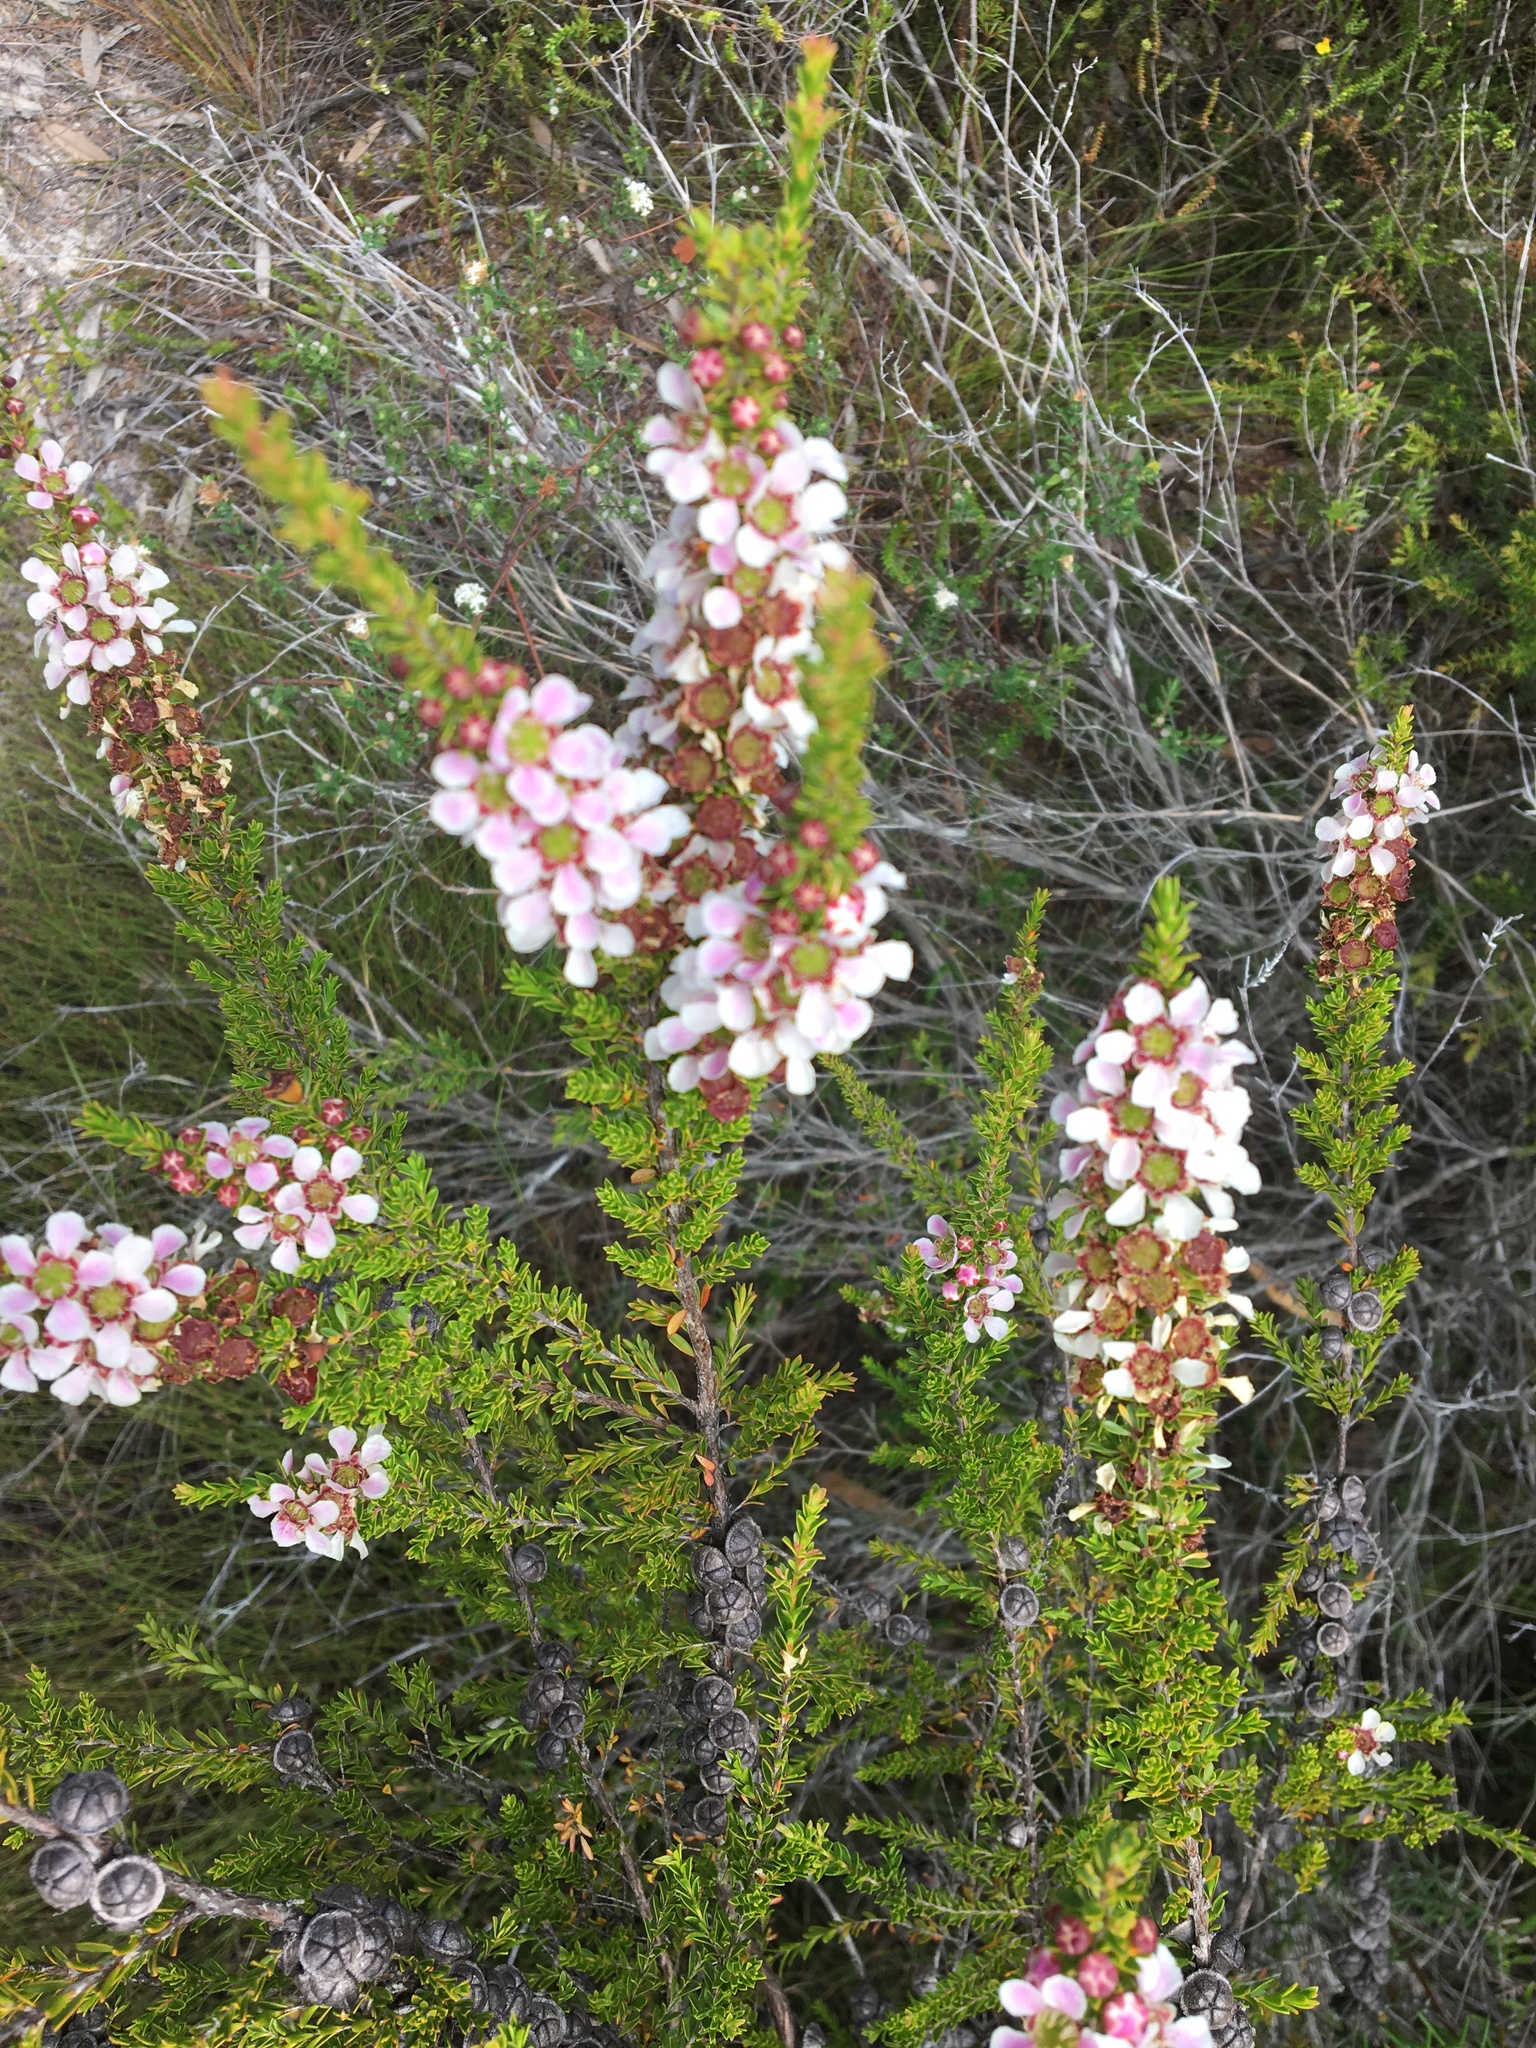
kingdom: Plantae
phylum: Tracheophyta
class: Magnoliopsida
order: Myrtales
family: Myrtaceae
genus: Leptospermum
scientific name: Leptospermum liversidgei
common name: Citron-scent teatree
